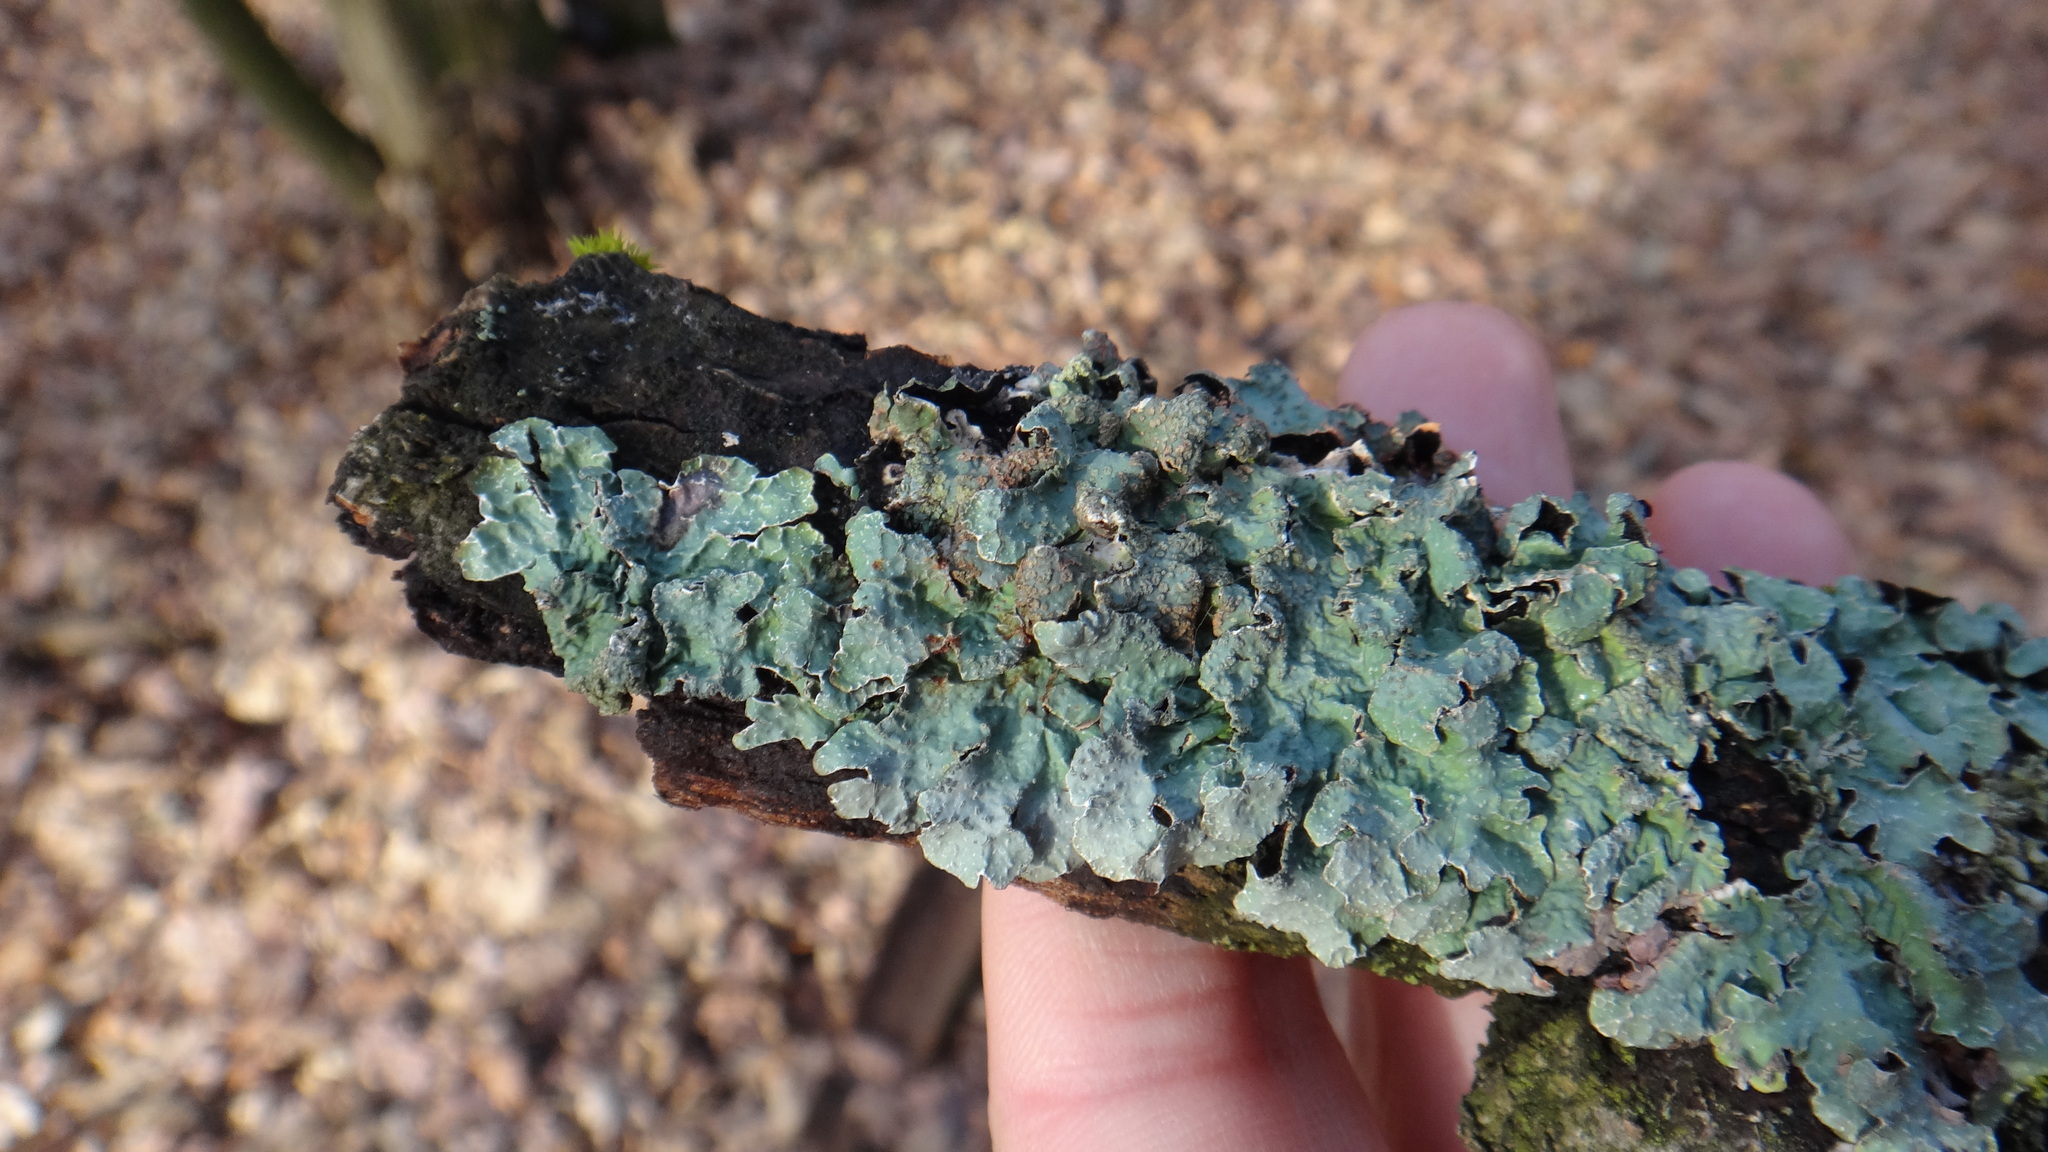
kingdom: Fungi
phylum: Ascomycota
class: Lecanoromycetes
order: Lecanorales
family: Parmeliaceae
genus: Parmelia
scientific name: Parmelia sulcata
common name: Netted shield lichen
